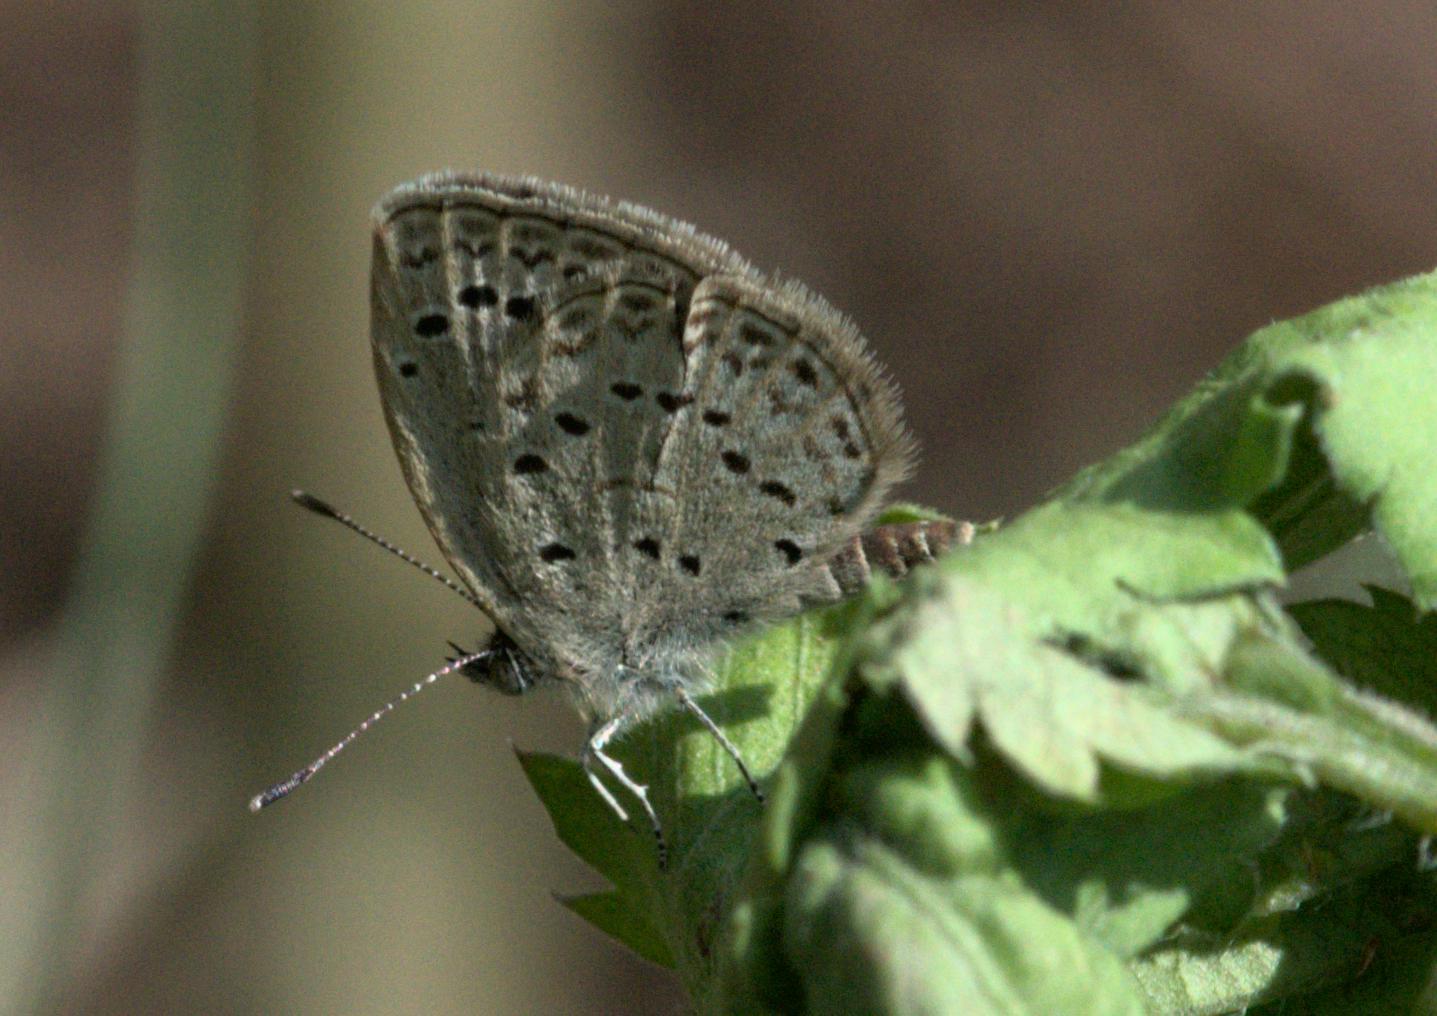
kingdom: Animalia
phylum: Arthropoda
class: Insecta
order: Lepidoptera
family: Lycaenidae
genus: Pseudozizeeria
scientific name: Pseudozizeeria maha
